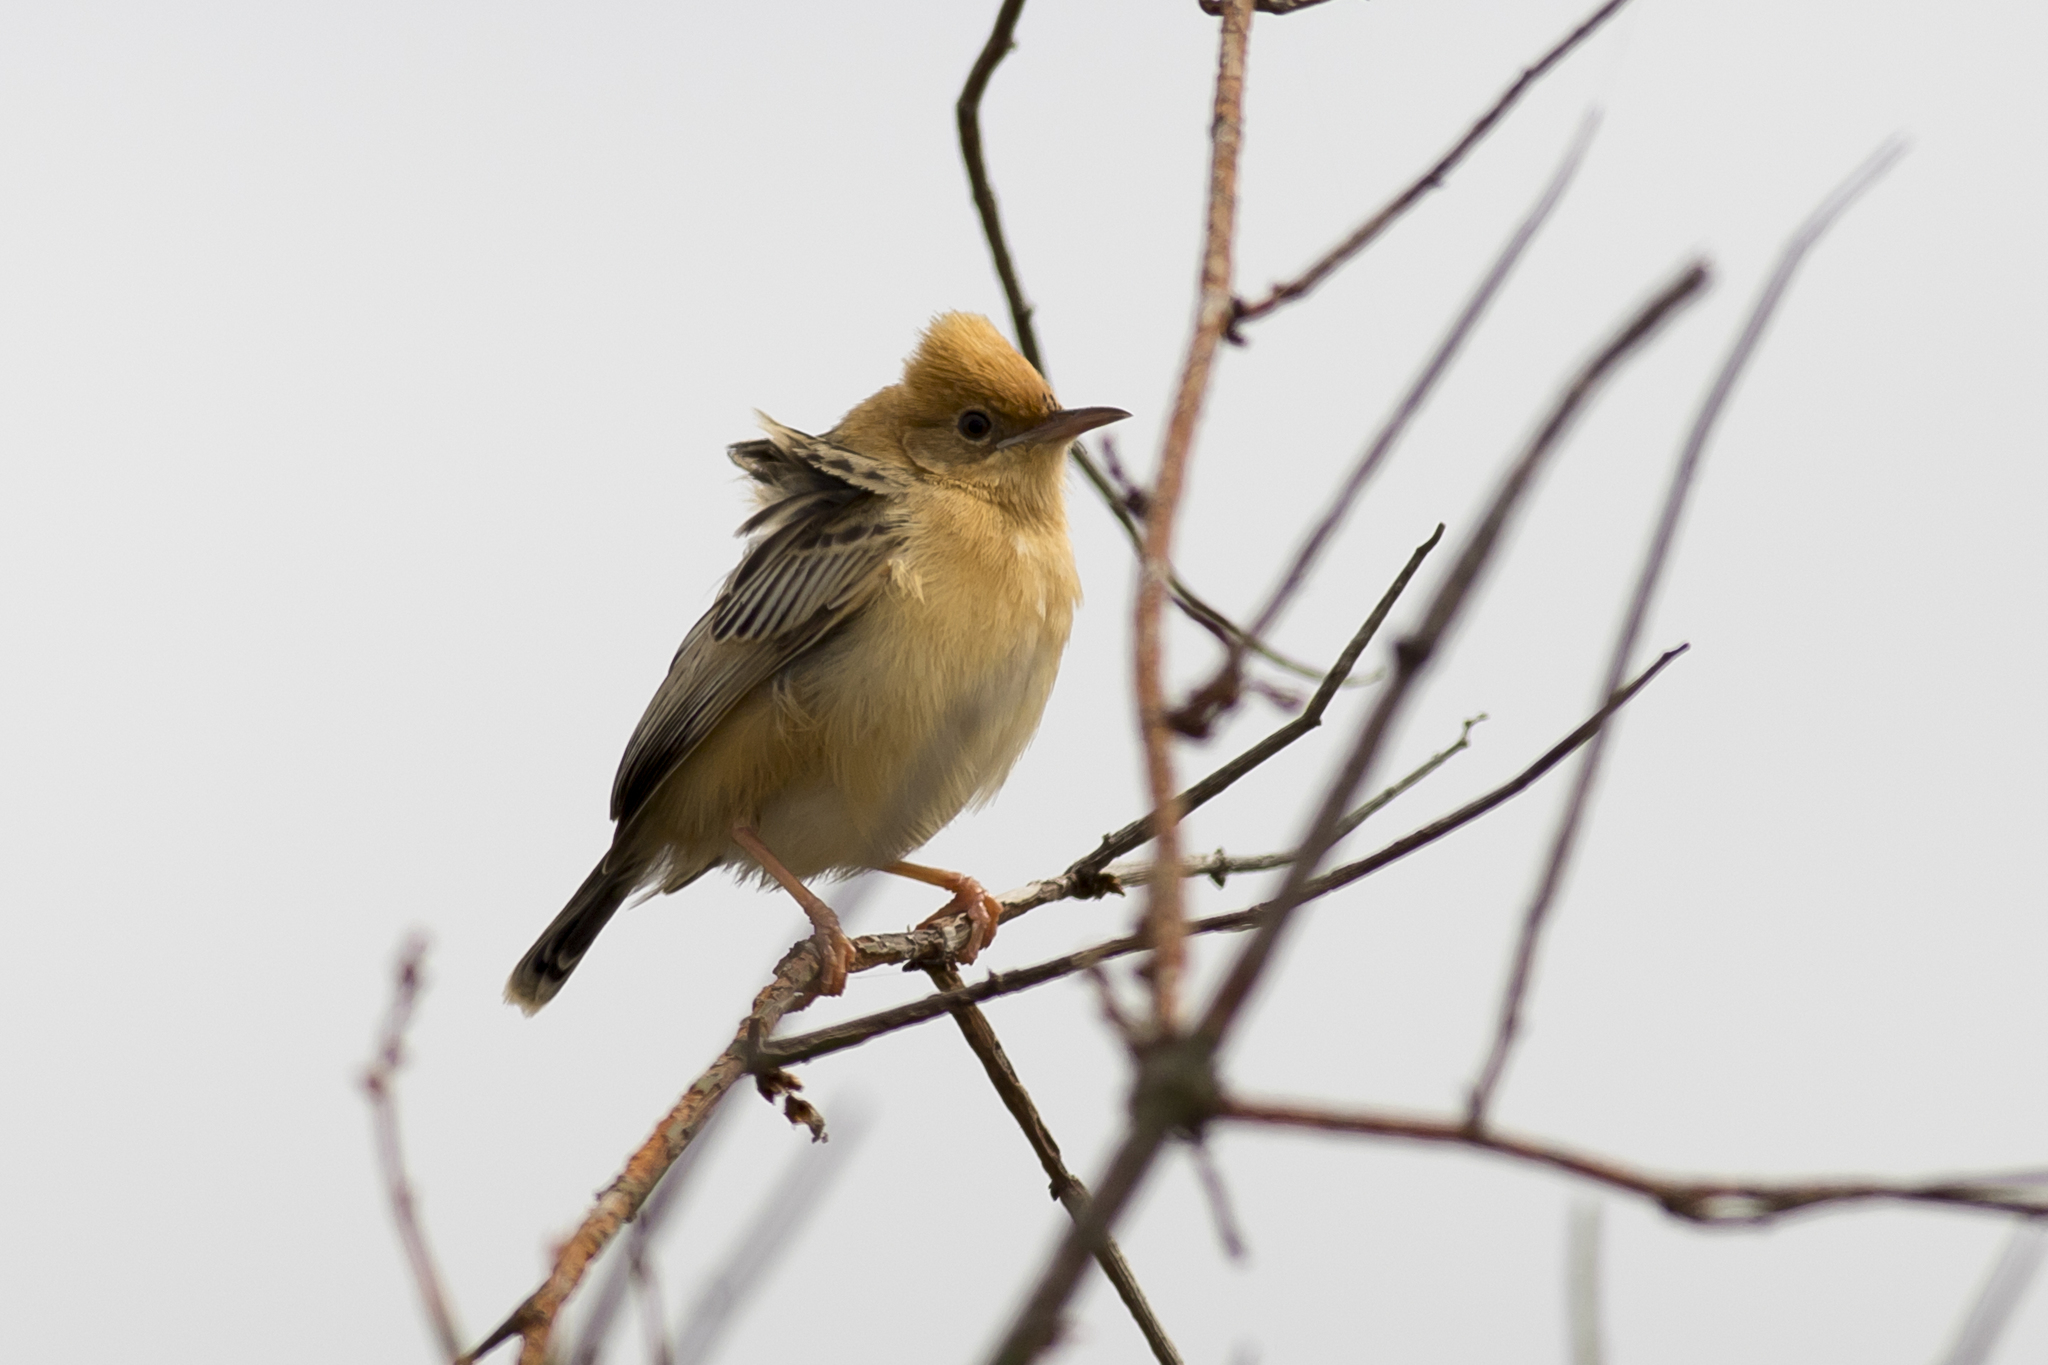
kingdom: Animalia
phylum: Chordata
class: Aves
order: Passeriformes
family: Cisticolidae
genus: Cisticola
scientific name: Cisticola exilis
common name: Golden-headed cisticola
